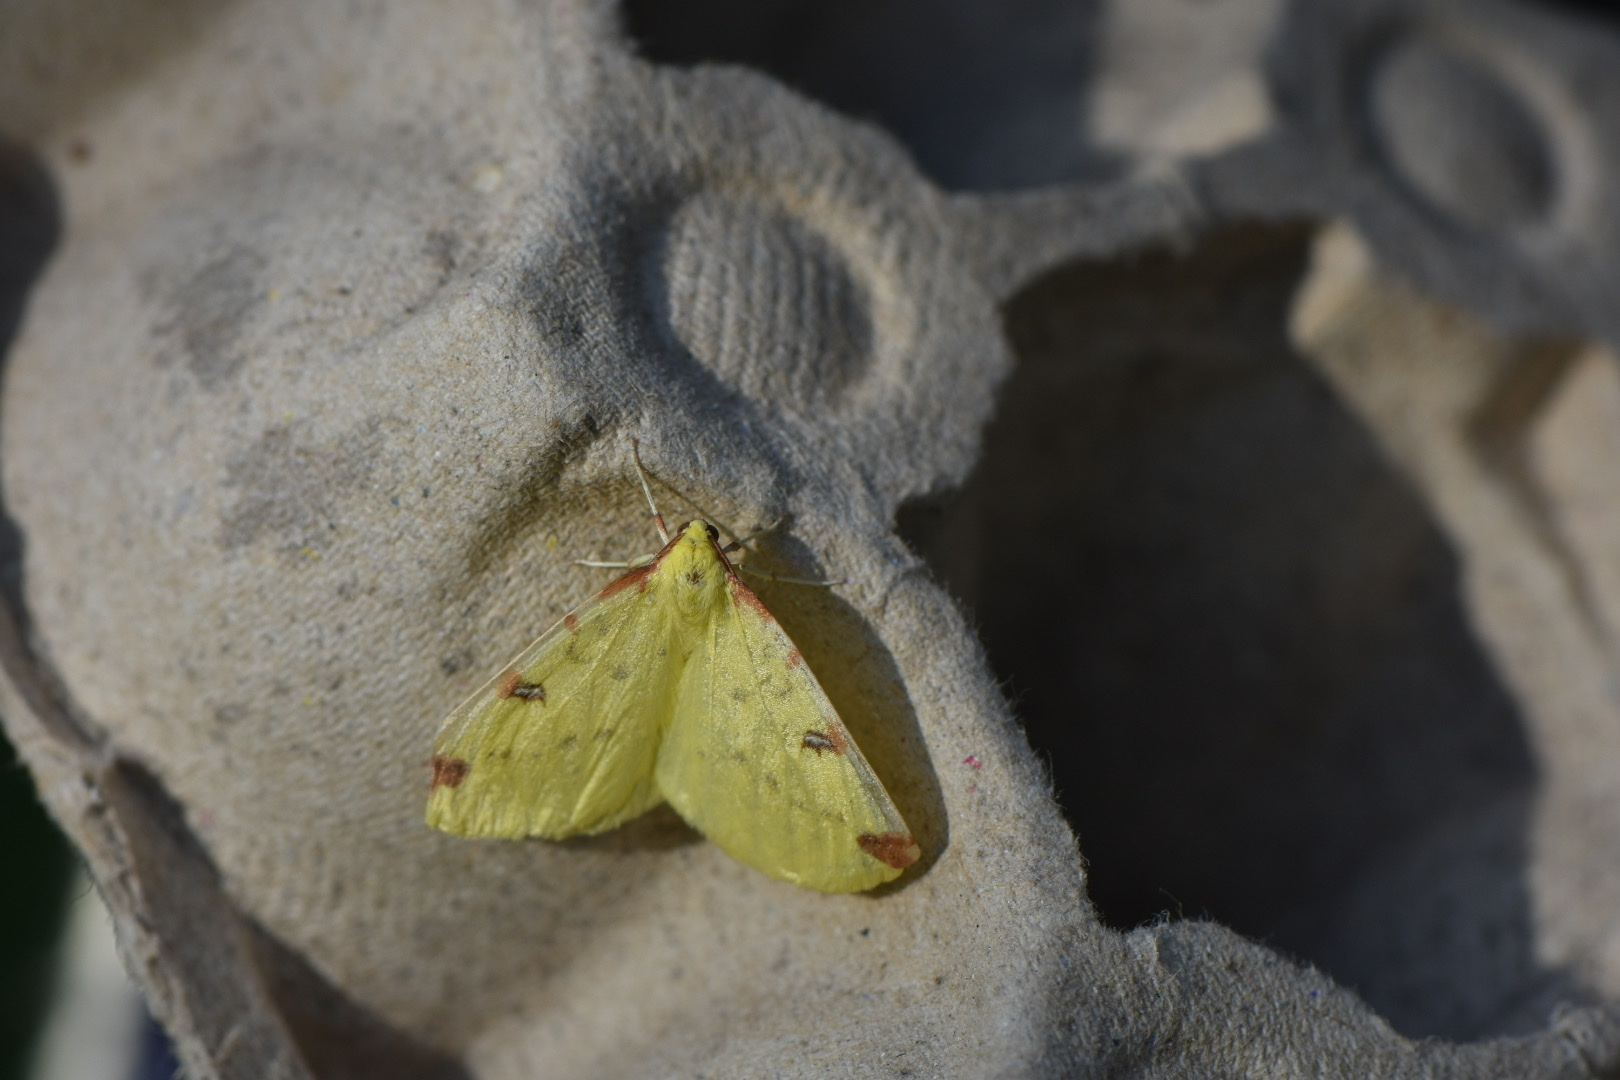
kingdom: Animalia
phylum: Arthropoda
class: Insecta
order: Lepidoptera
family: Geometridae
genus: Opisthograptis
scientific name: Opisthograptis luteolata
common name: Brimstone moth
